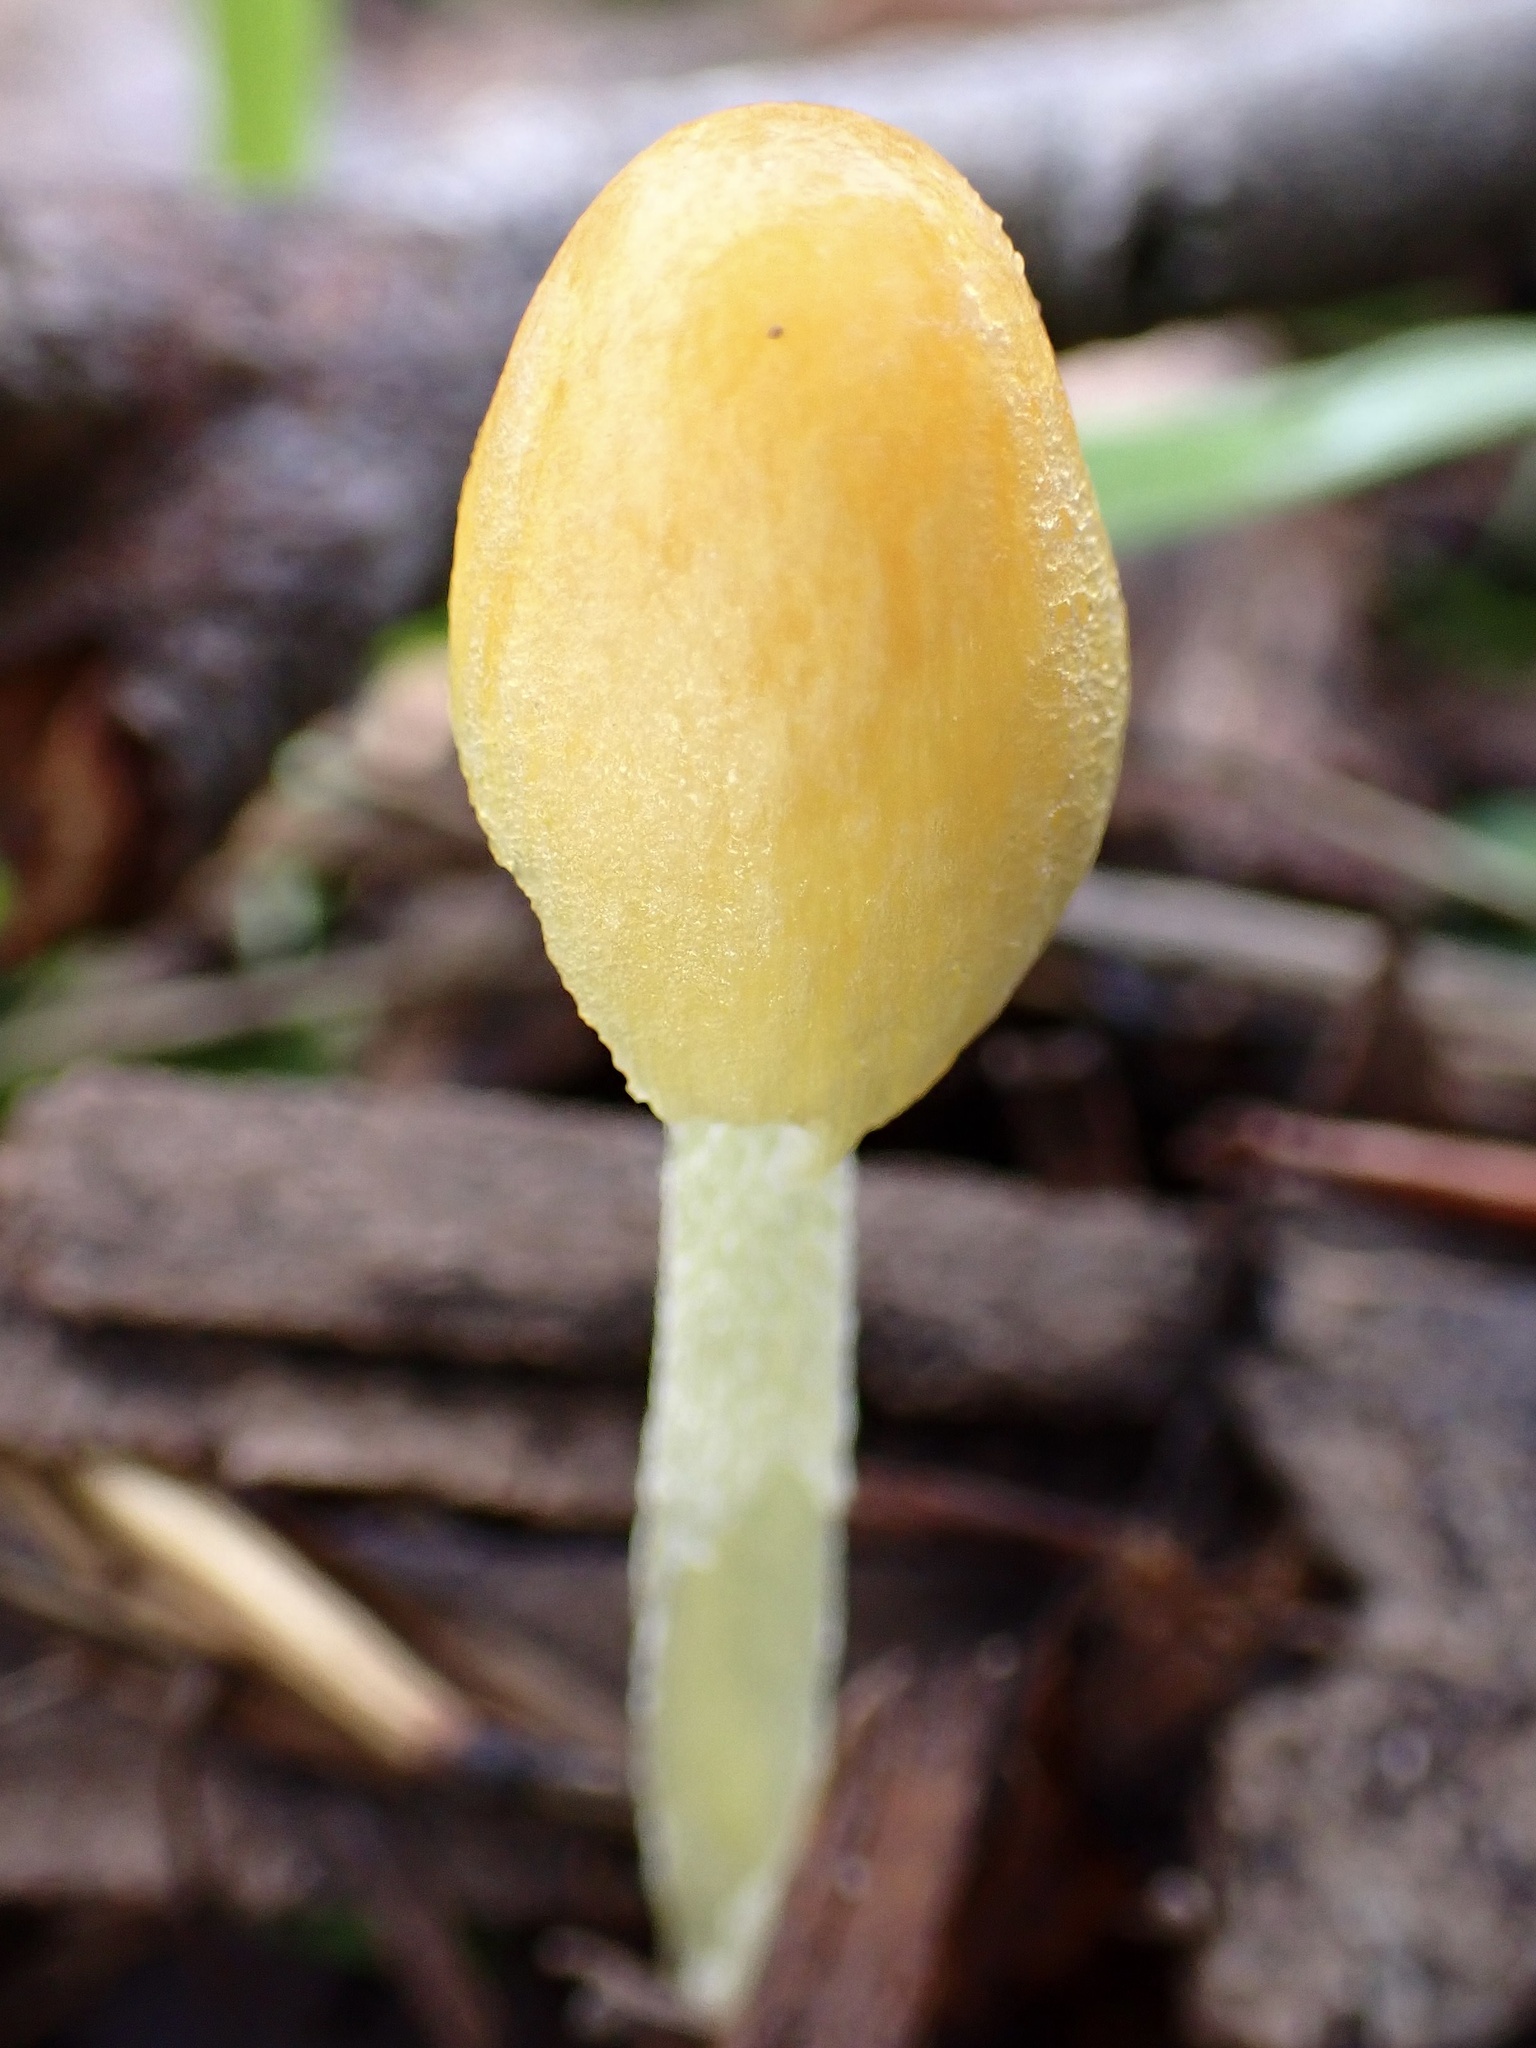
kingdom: Fungi
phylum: Basidiomycota
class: Agaricomycetes
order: Agaricales
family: Bolbitiaceae
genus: Bolbitius
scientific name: Bolbitius titubans
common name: Yellow fieldcap
